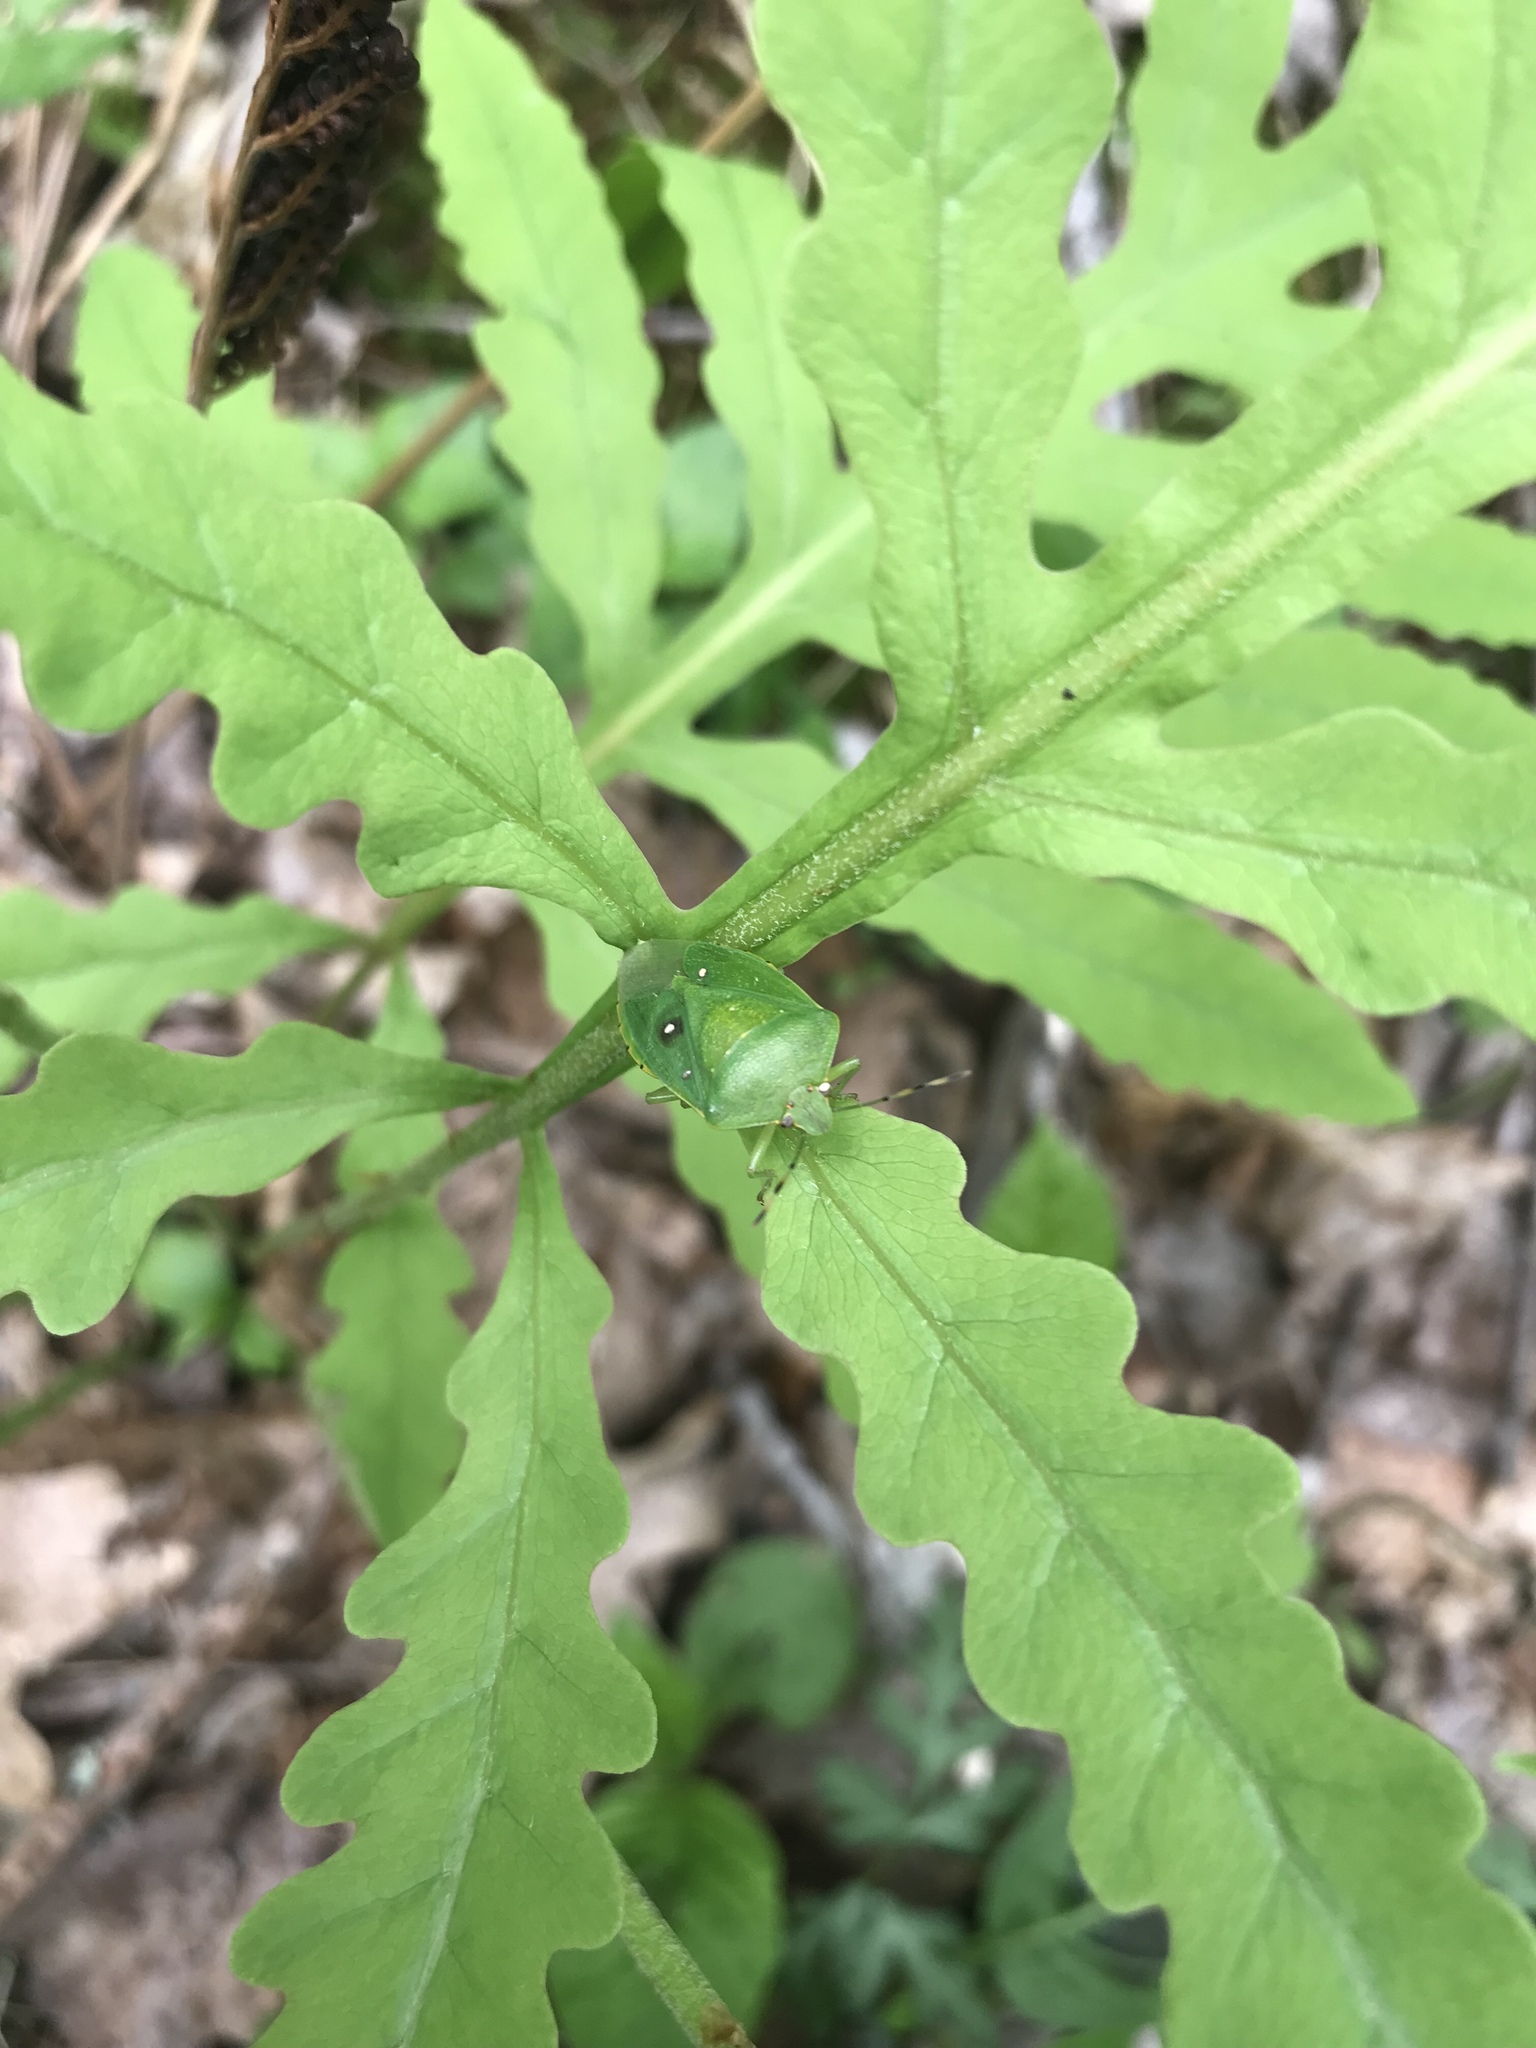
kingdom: Animalia
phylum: Arthropoda
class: Insecta
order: Hemiptera
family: Pentatomidae
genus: Chinavia
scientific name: Chinavia hilaris
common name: Green stink bug
